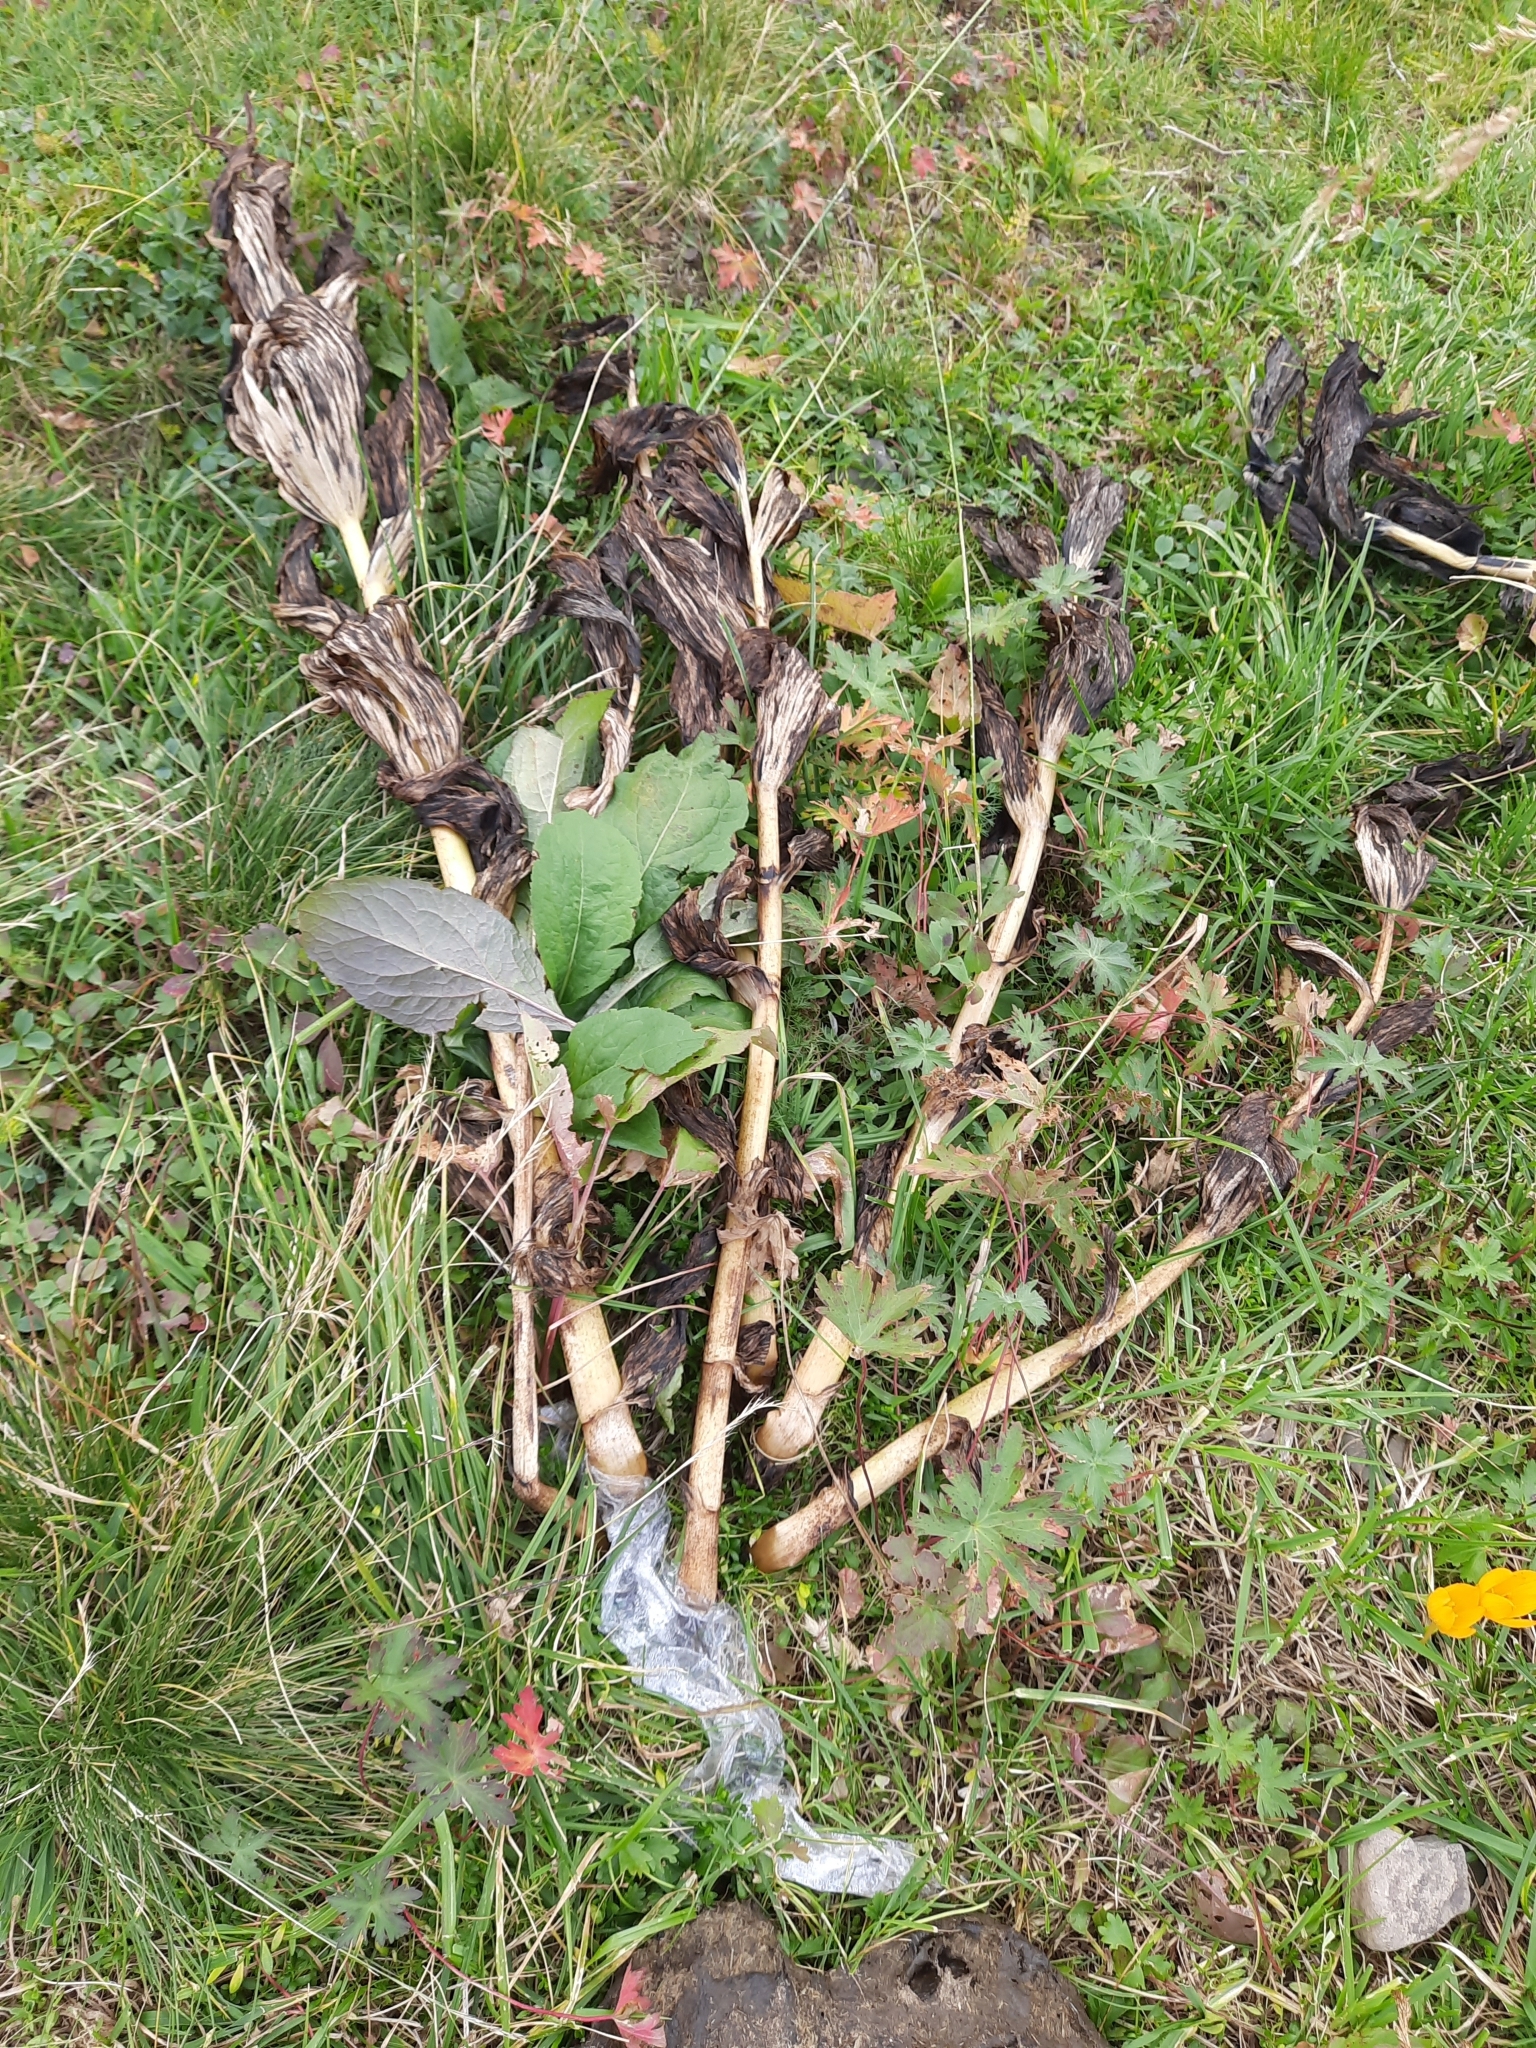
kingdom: Plantae
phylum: Tracheophyta
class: Liliopsida
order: Liliales
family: Melanthiaceae
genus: Veratrum
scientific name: Veratrum lobelianum
